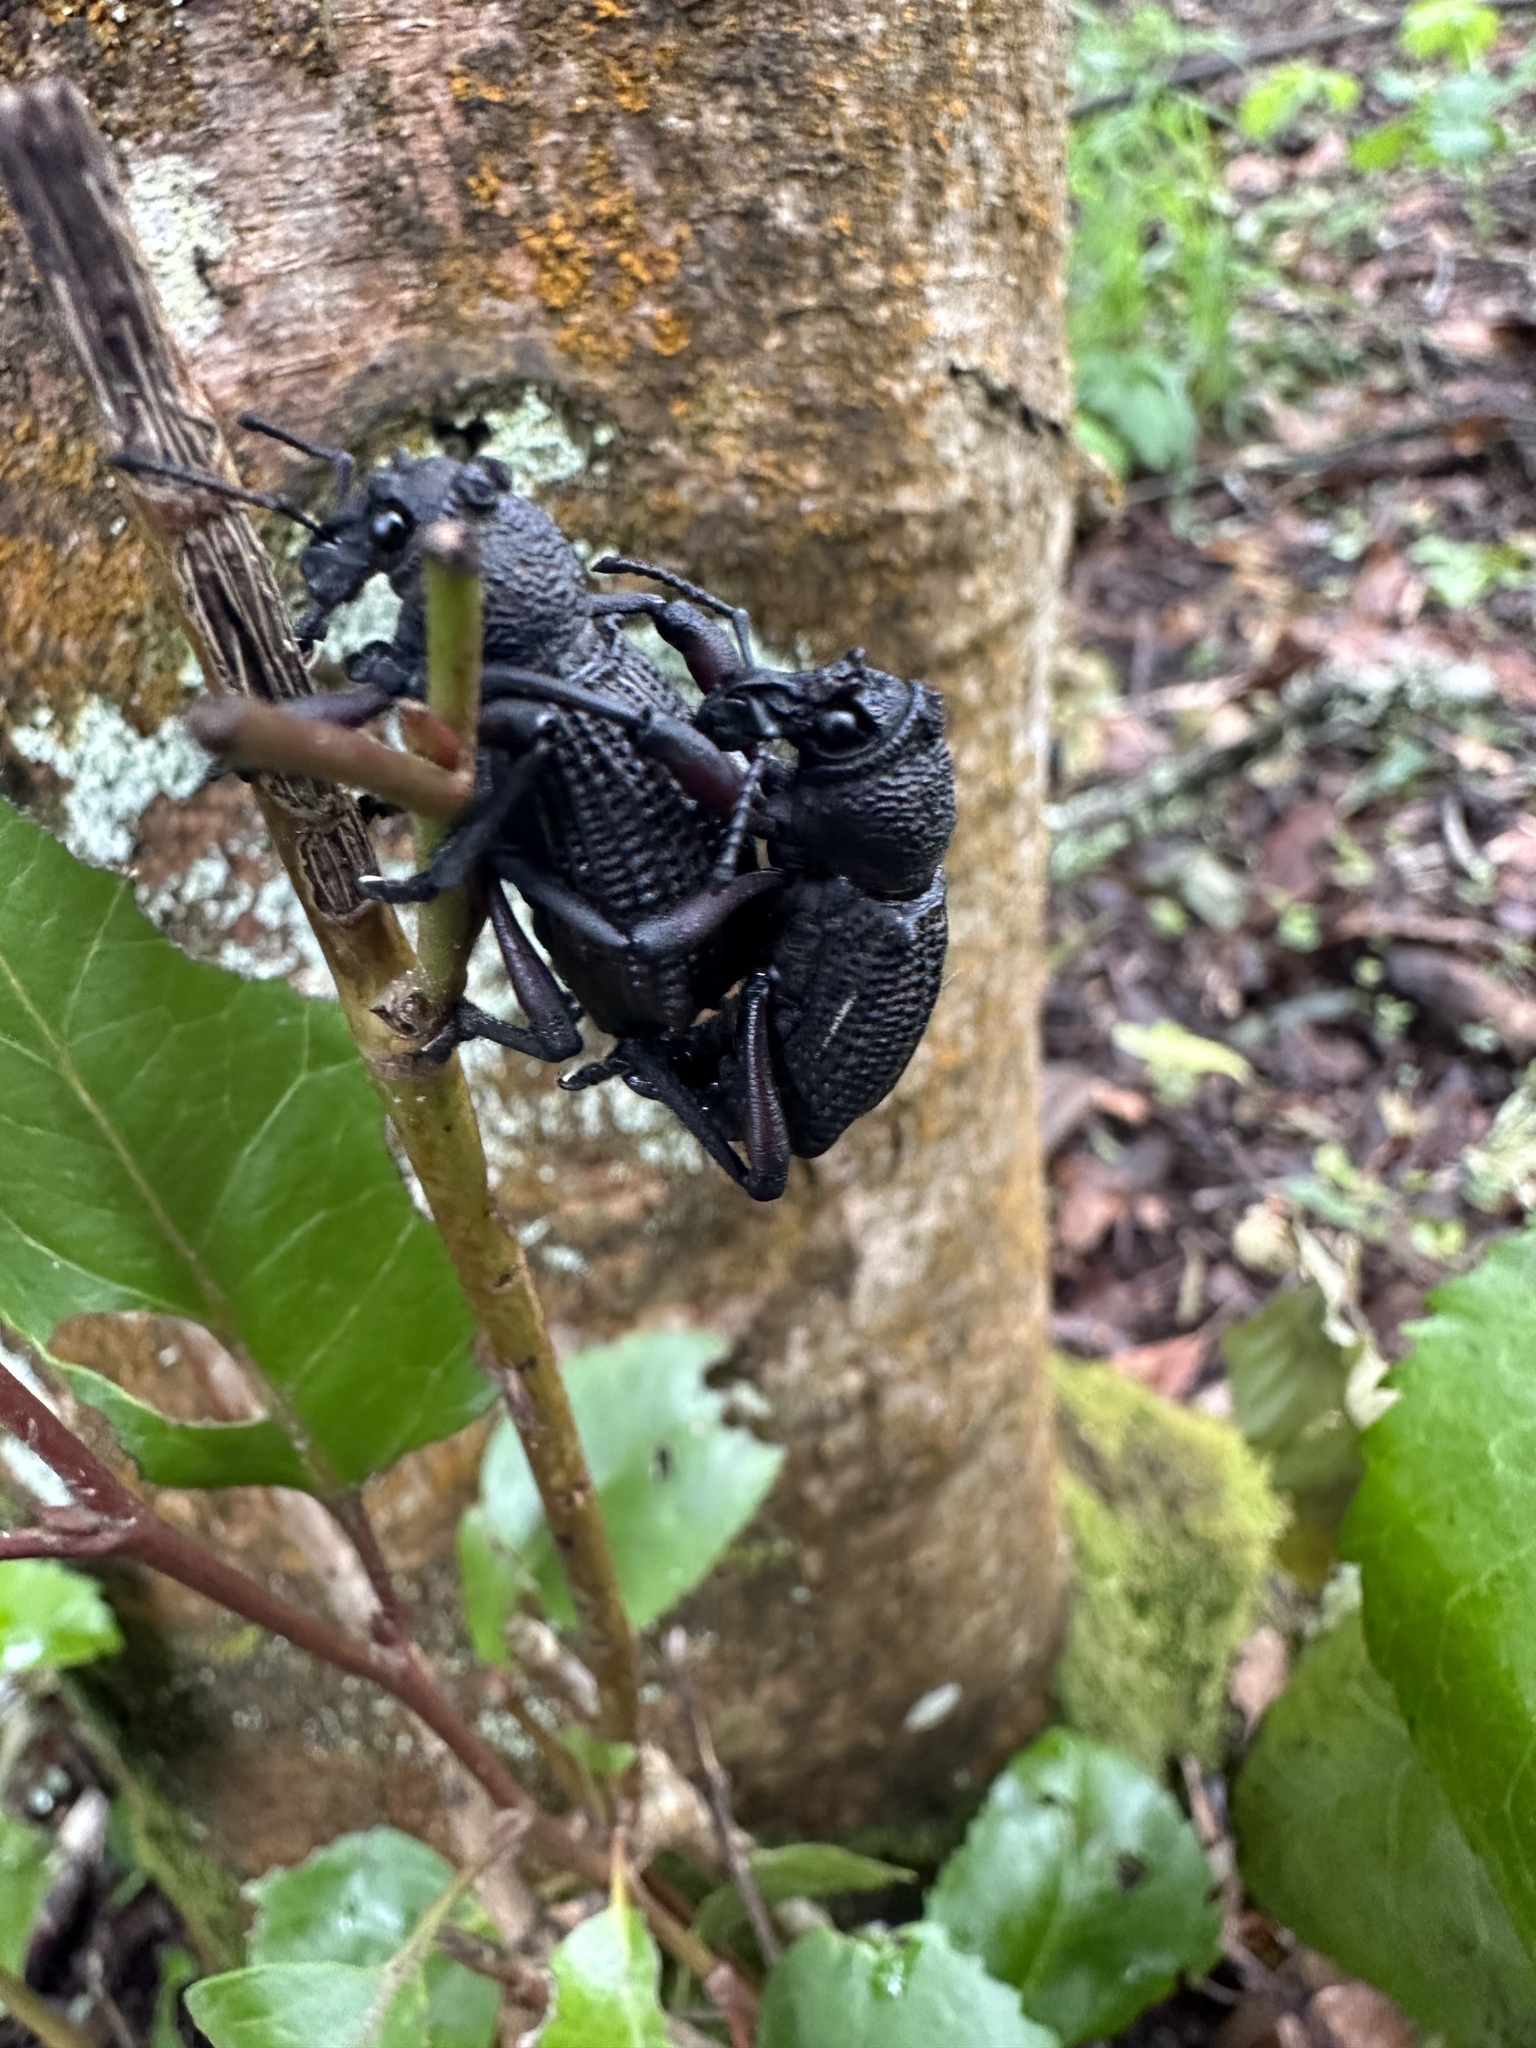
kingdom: Animalia
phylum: Arthropoda
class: Insecta
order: Coleoptera
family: Curculionidae
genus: Aegorhinus
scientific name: Aegorhinus
